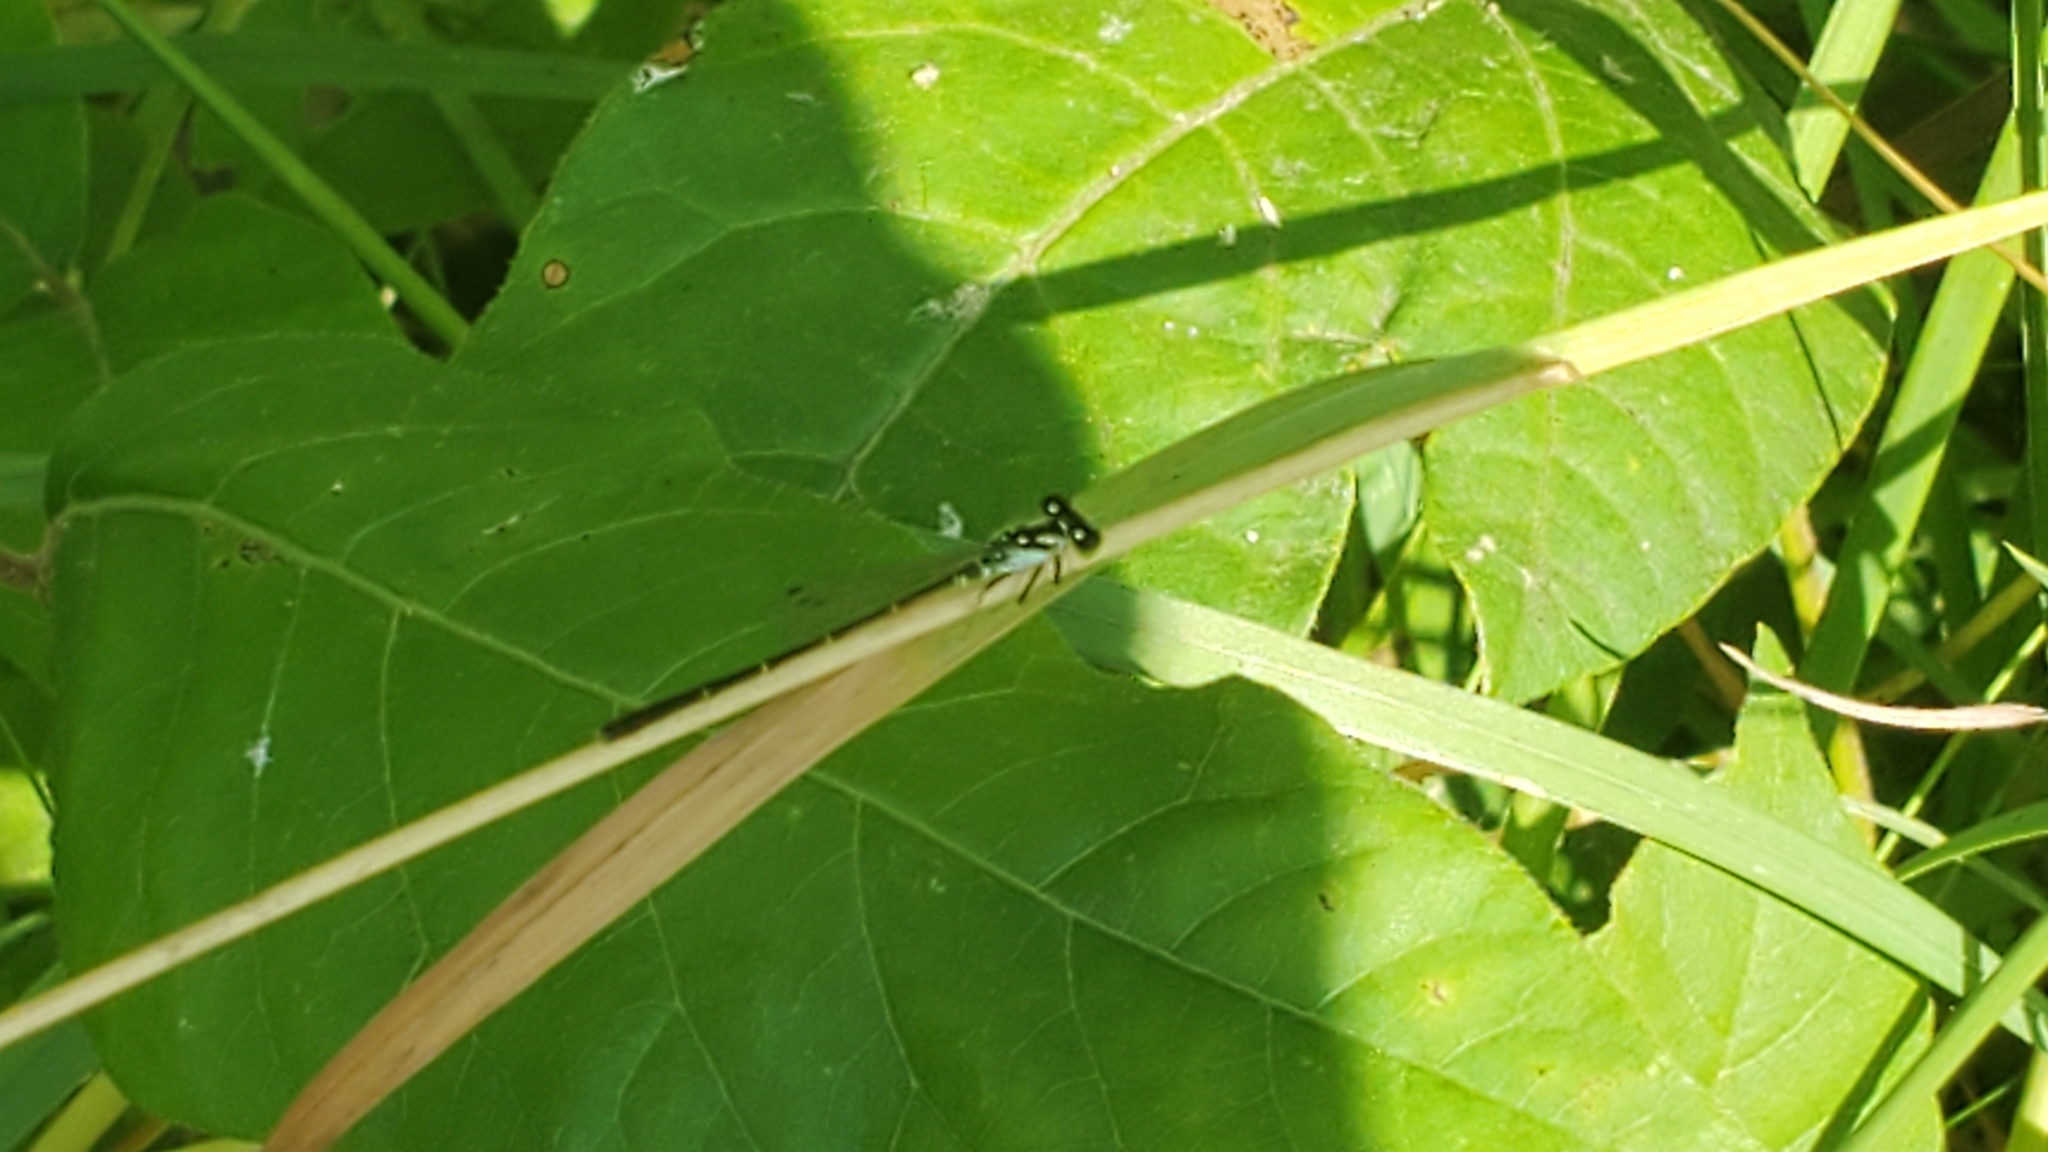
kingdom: Animalia
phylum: Arthropoda
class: Insecta
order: Odonata
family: Coenagrionidae
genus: Ischnura
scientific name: Ischnura posita
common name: Fragile forktail
